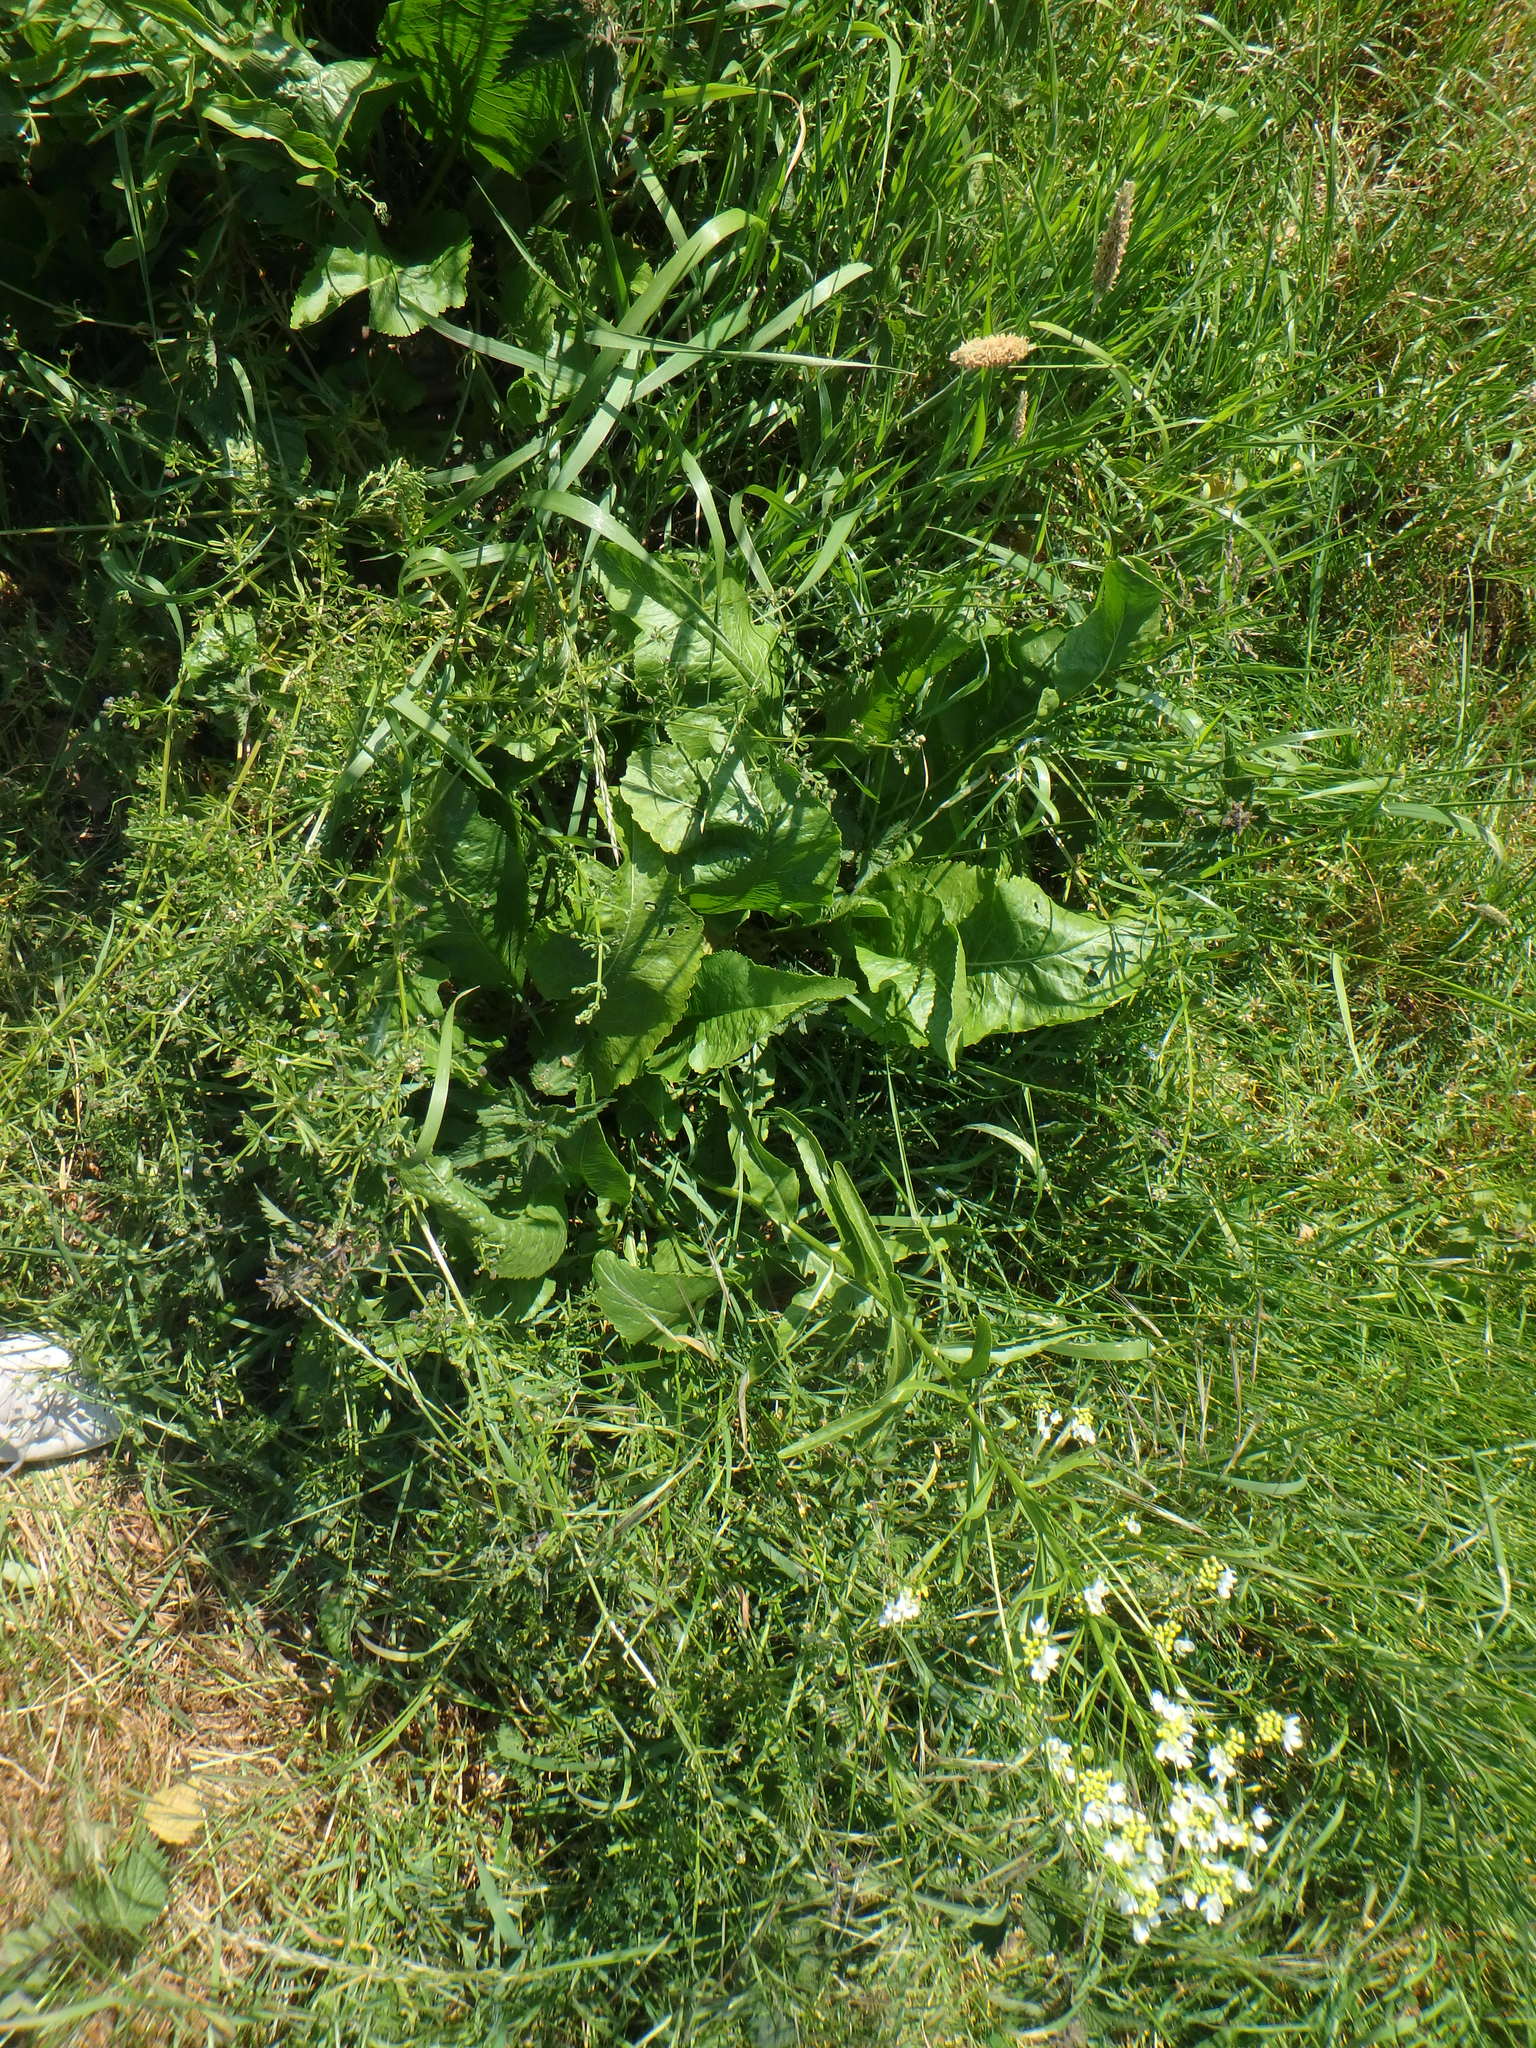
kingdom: Plantae
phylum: Tracheophyta
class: Magnoliopsida
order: Brassicales
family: Brassicaceae
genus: Armoracia
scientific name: Armoracia rusticana
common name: Horseradish
